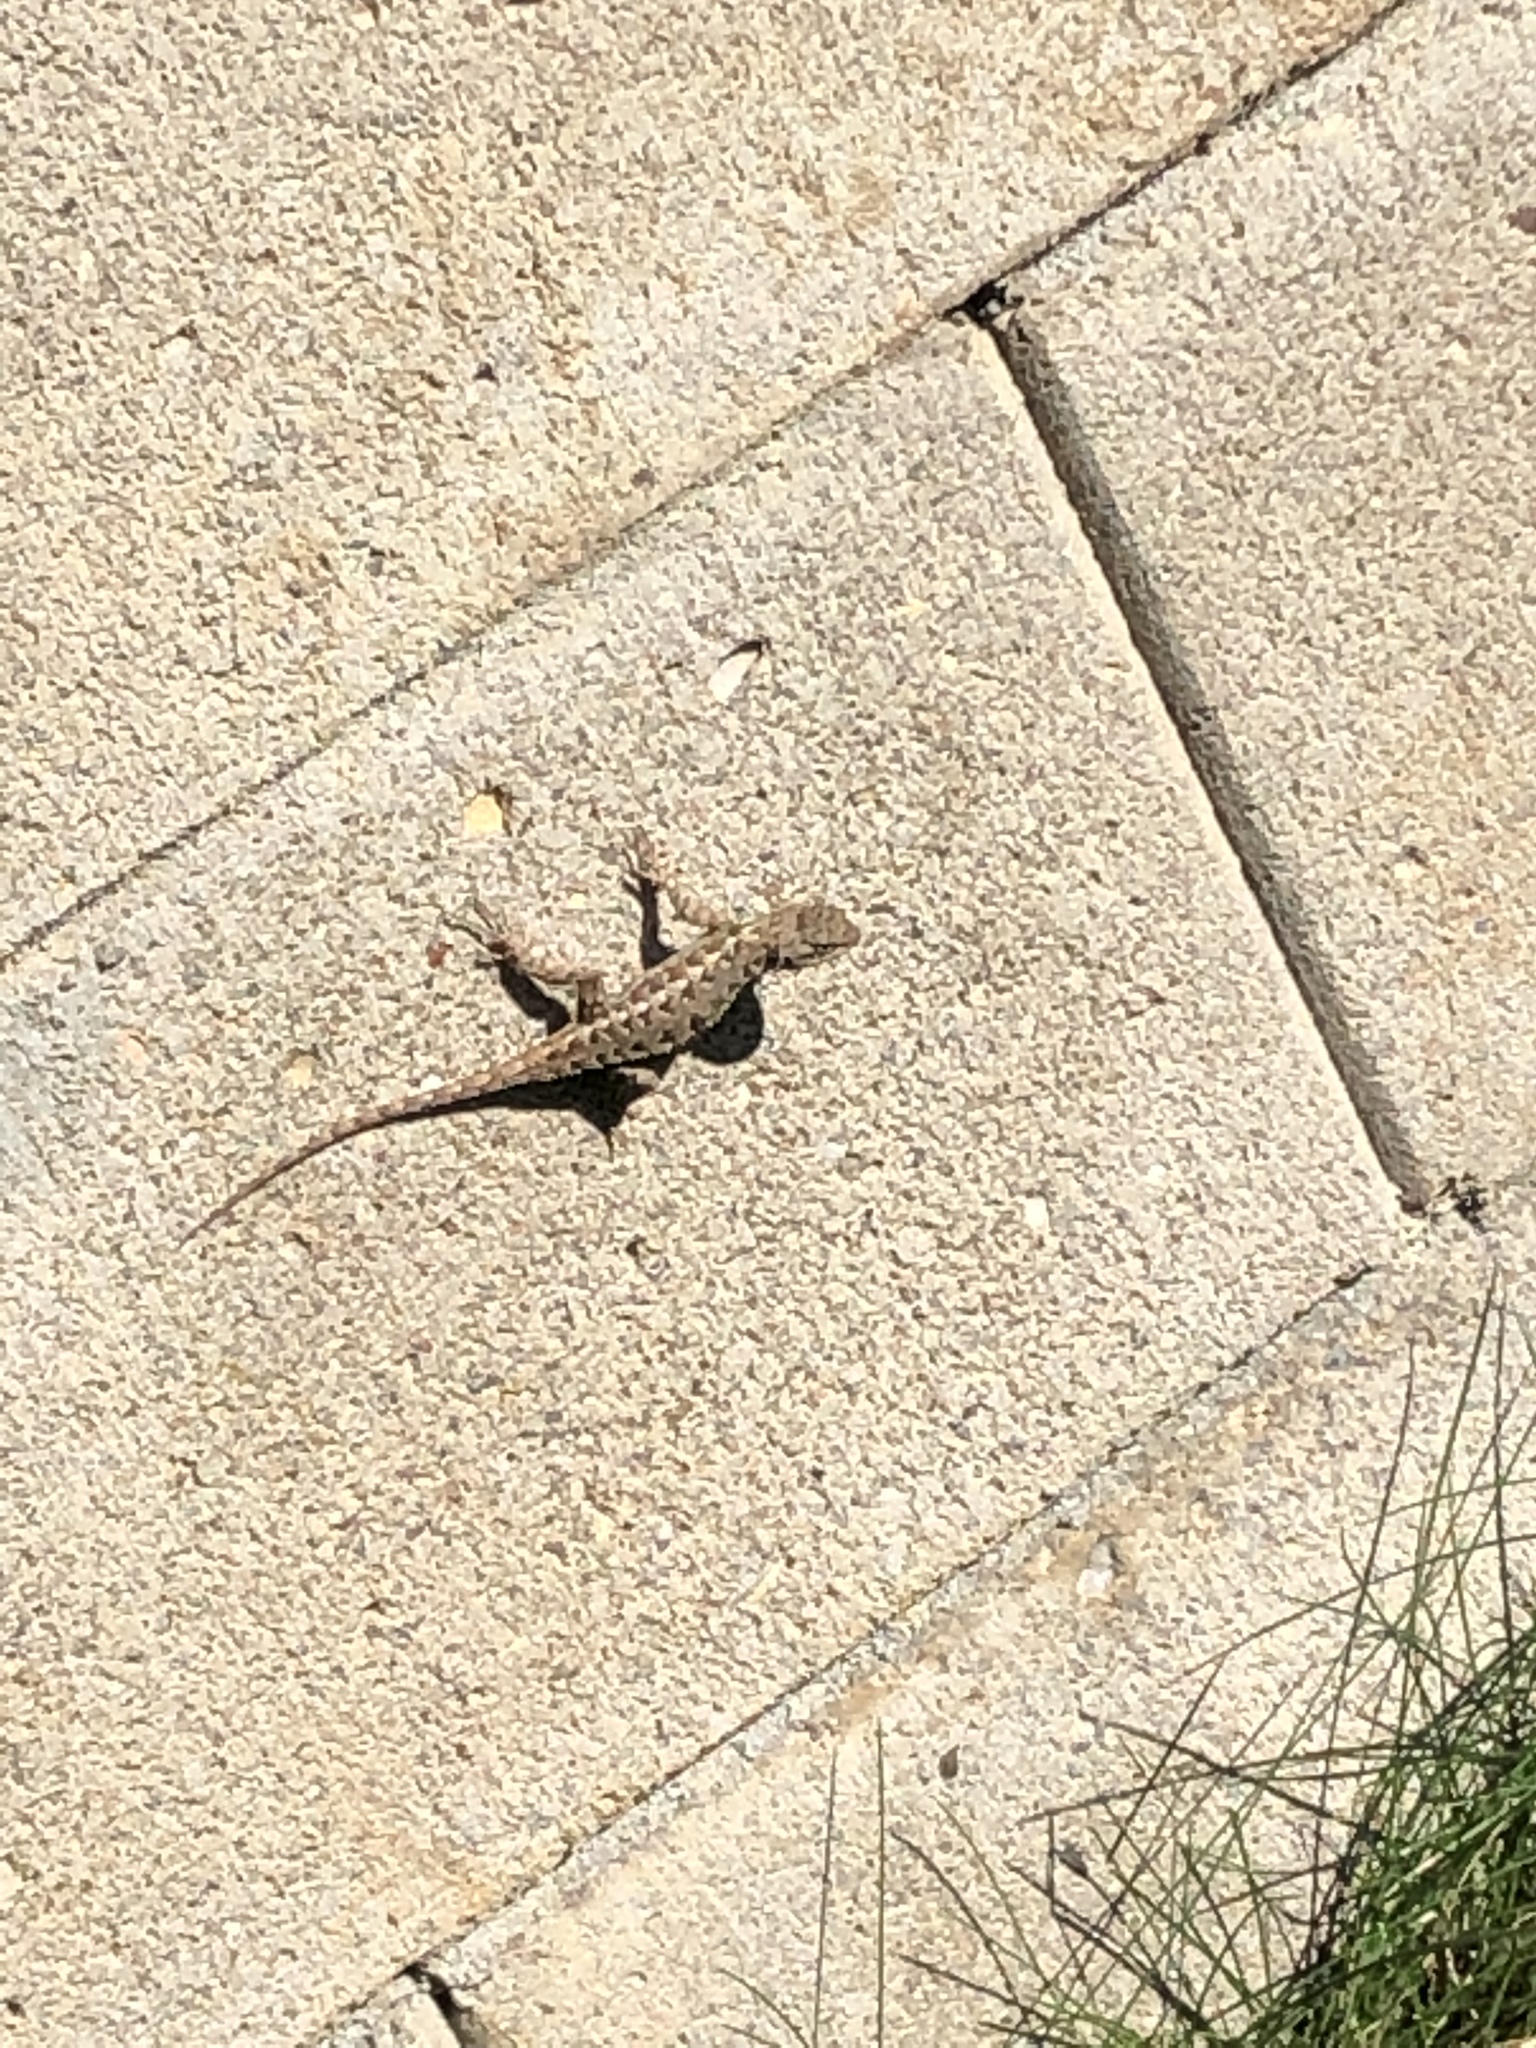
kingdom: Animalia
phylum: Chordata
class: Squamata
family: Phrynosomatidae
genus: Sceloporus
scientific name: Sceloporus occidentalis
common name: Western fence lizard
